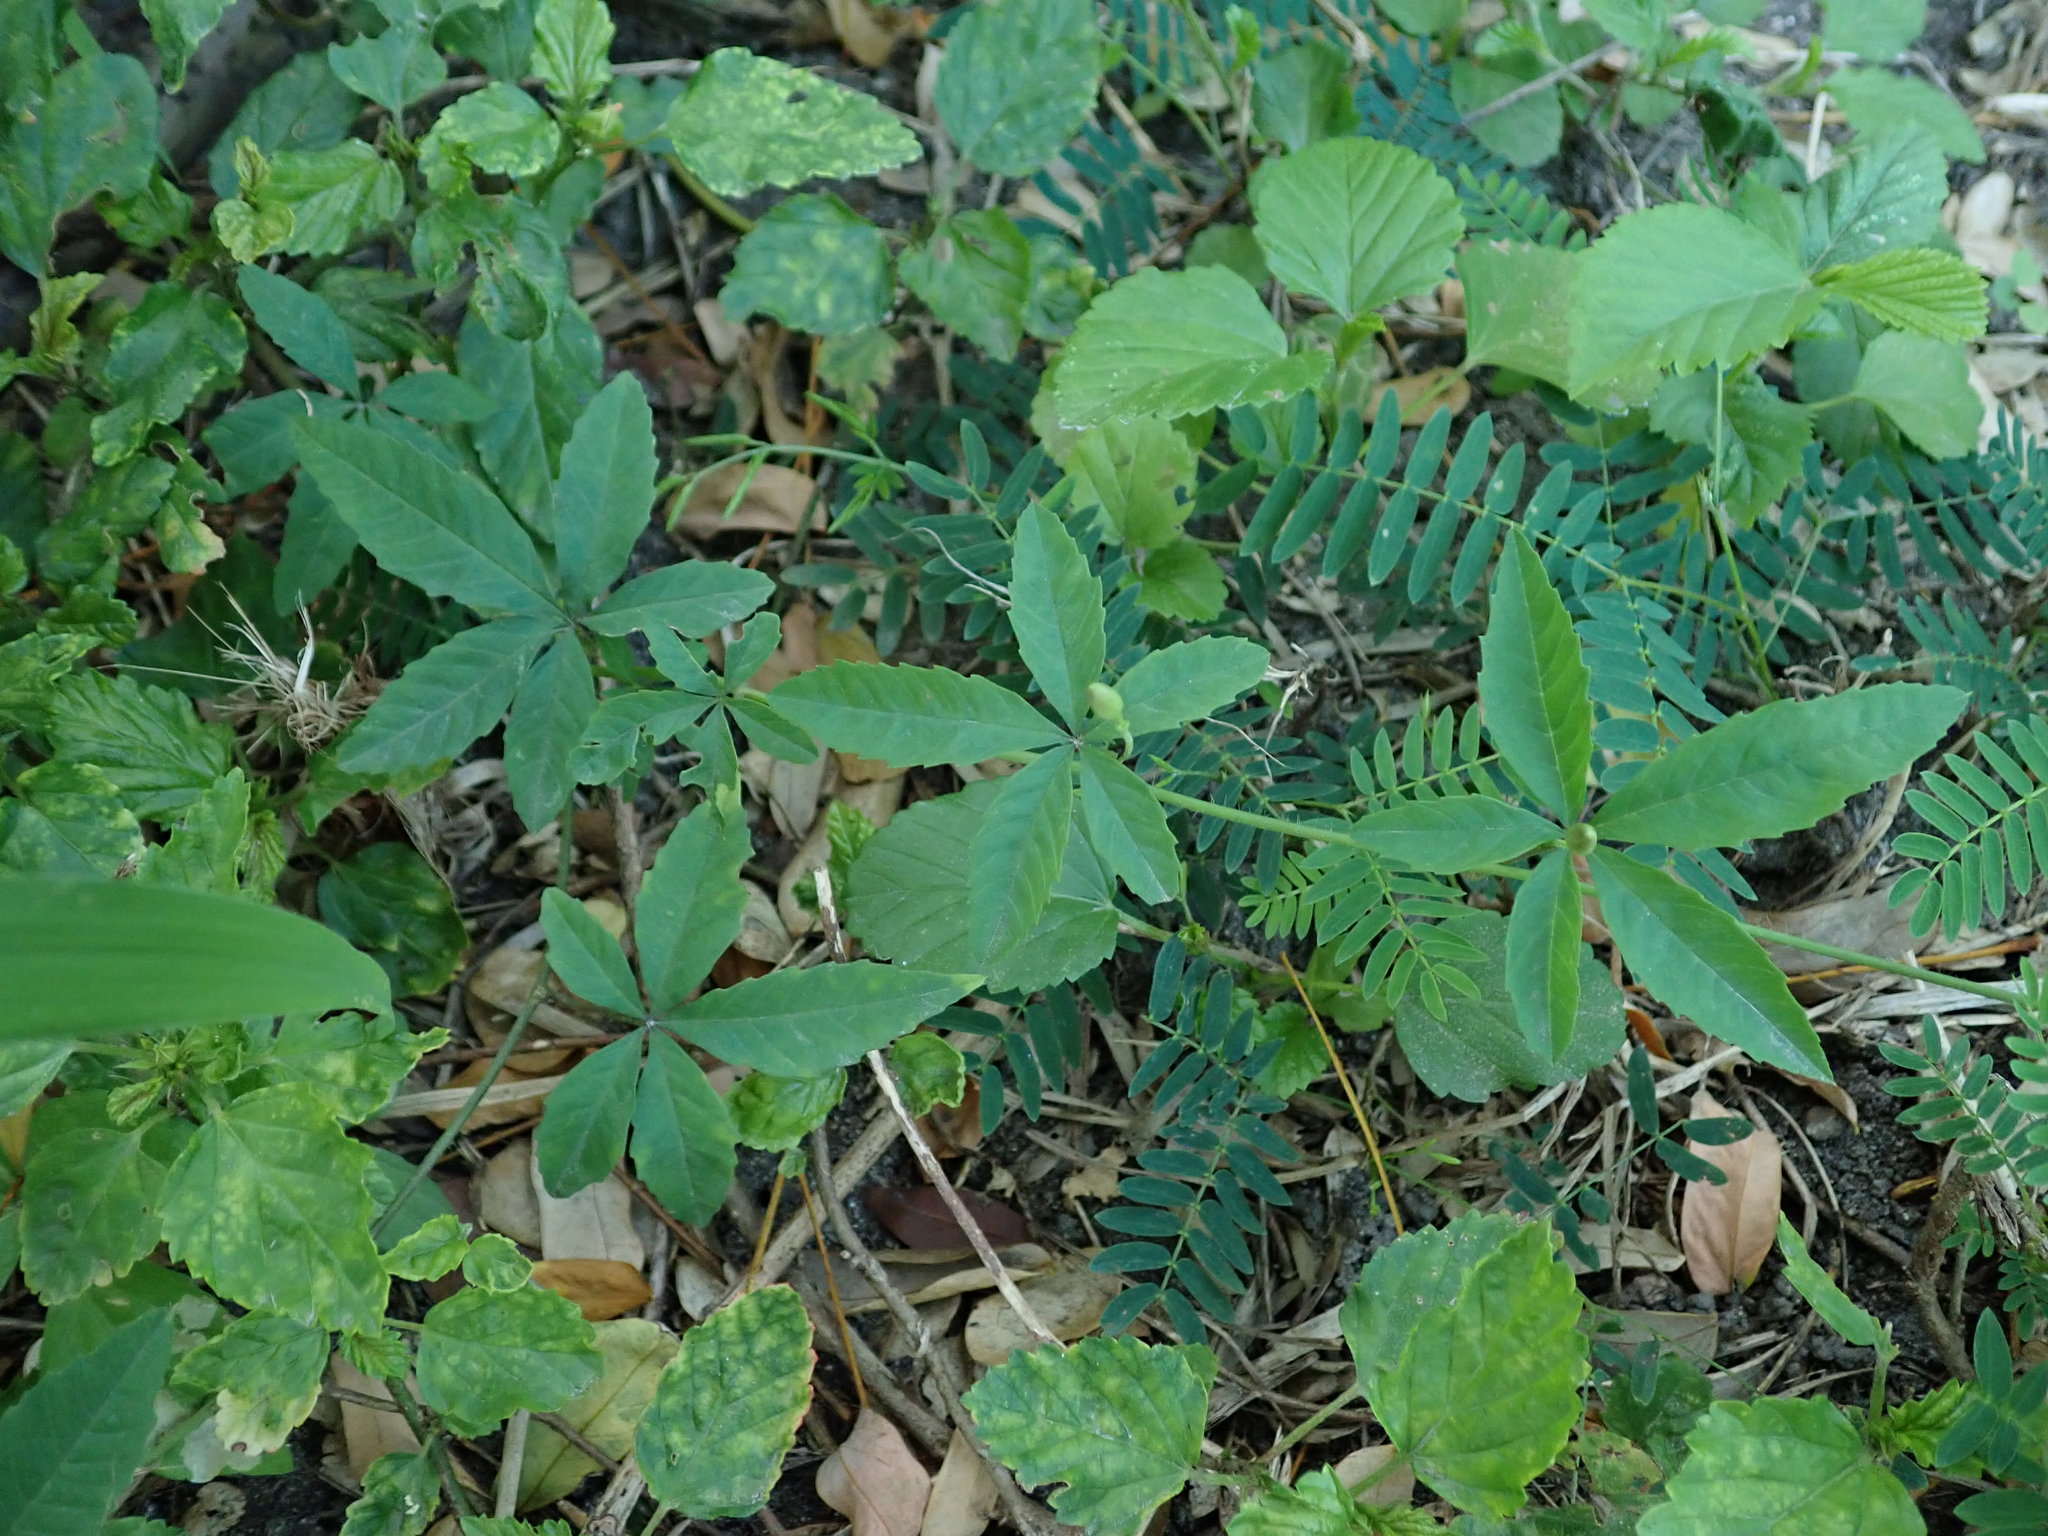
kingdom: Plantae
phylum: Tracheophyta
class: Magnoliopsida
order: Solanales
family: Convolvulaceae
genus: Distimake
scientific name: Distimake quinquefolius
